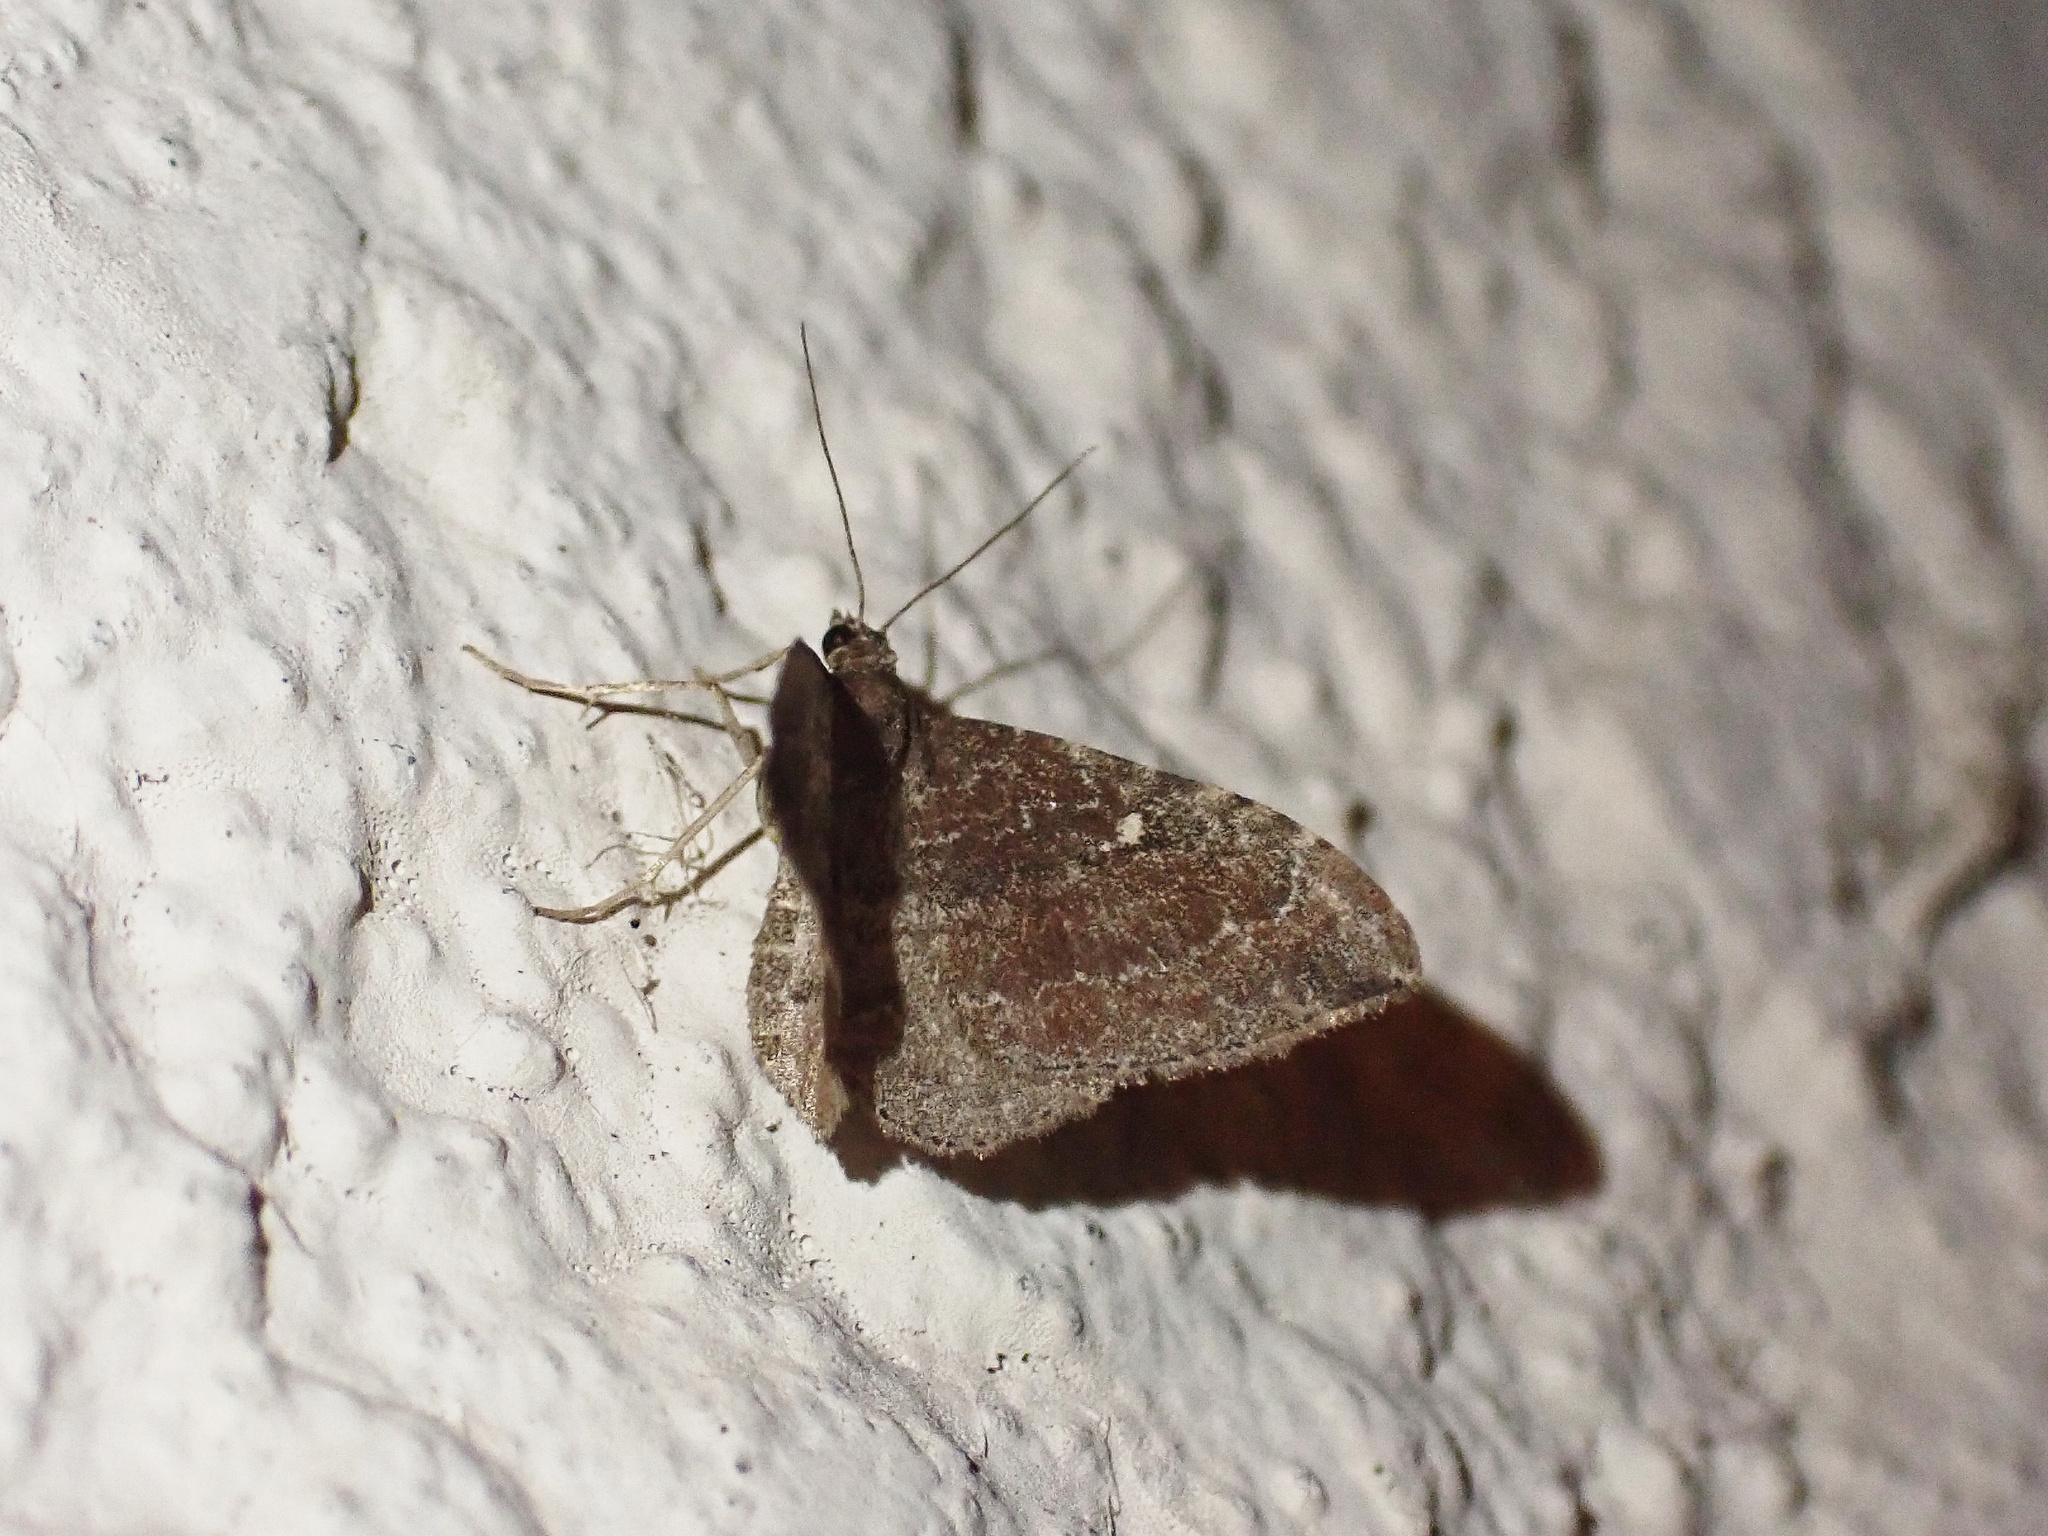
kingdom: Animalia
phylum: Arthropoda
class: Insecta
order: Lepidoptera
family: Geometridae
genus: Orthonama
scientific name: Orthonama obstipata
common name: The gem
